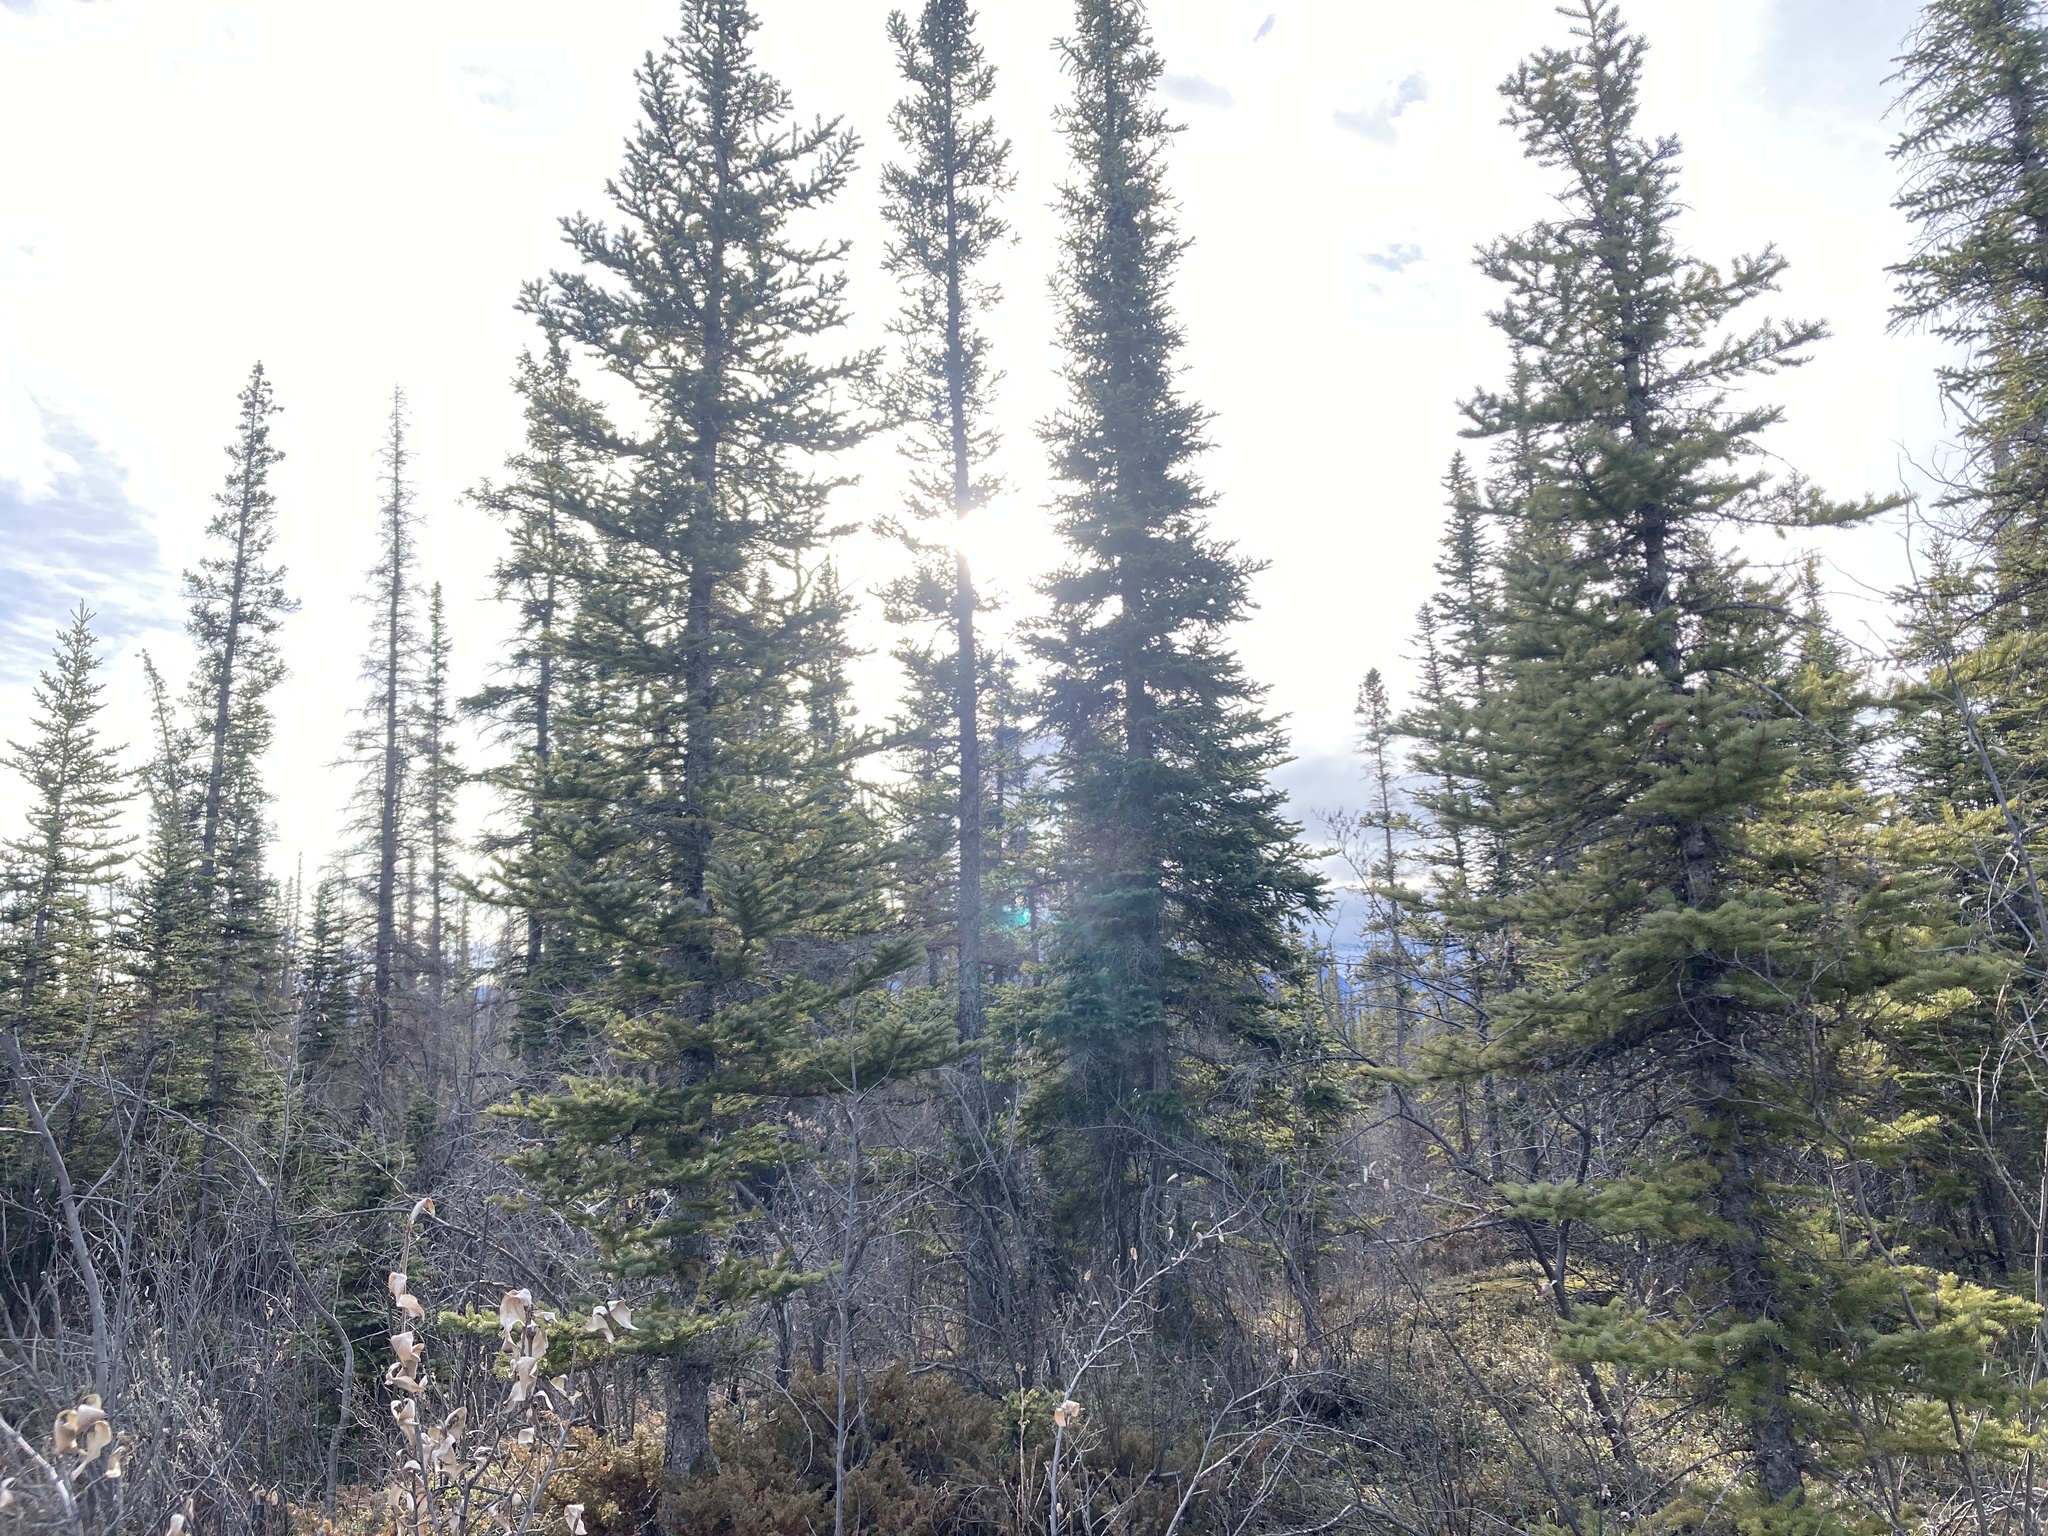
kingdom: Plantae
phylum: Tracheophyta
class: Pinopsida
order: Pinales
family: Pinaceae
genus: Picea
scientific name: Picea mariana
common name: Black spruce
